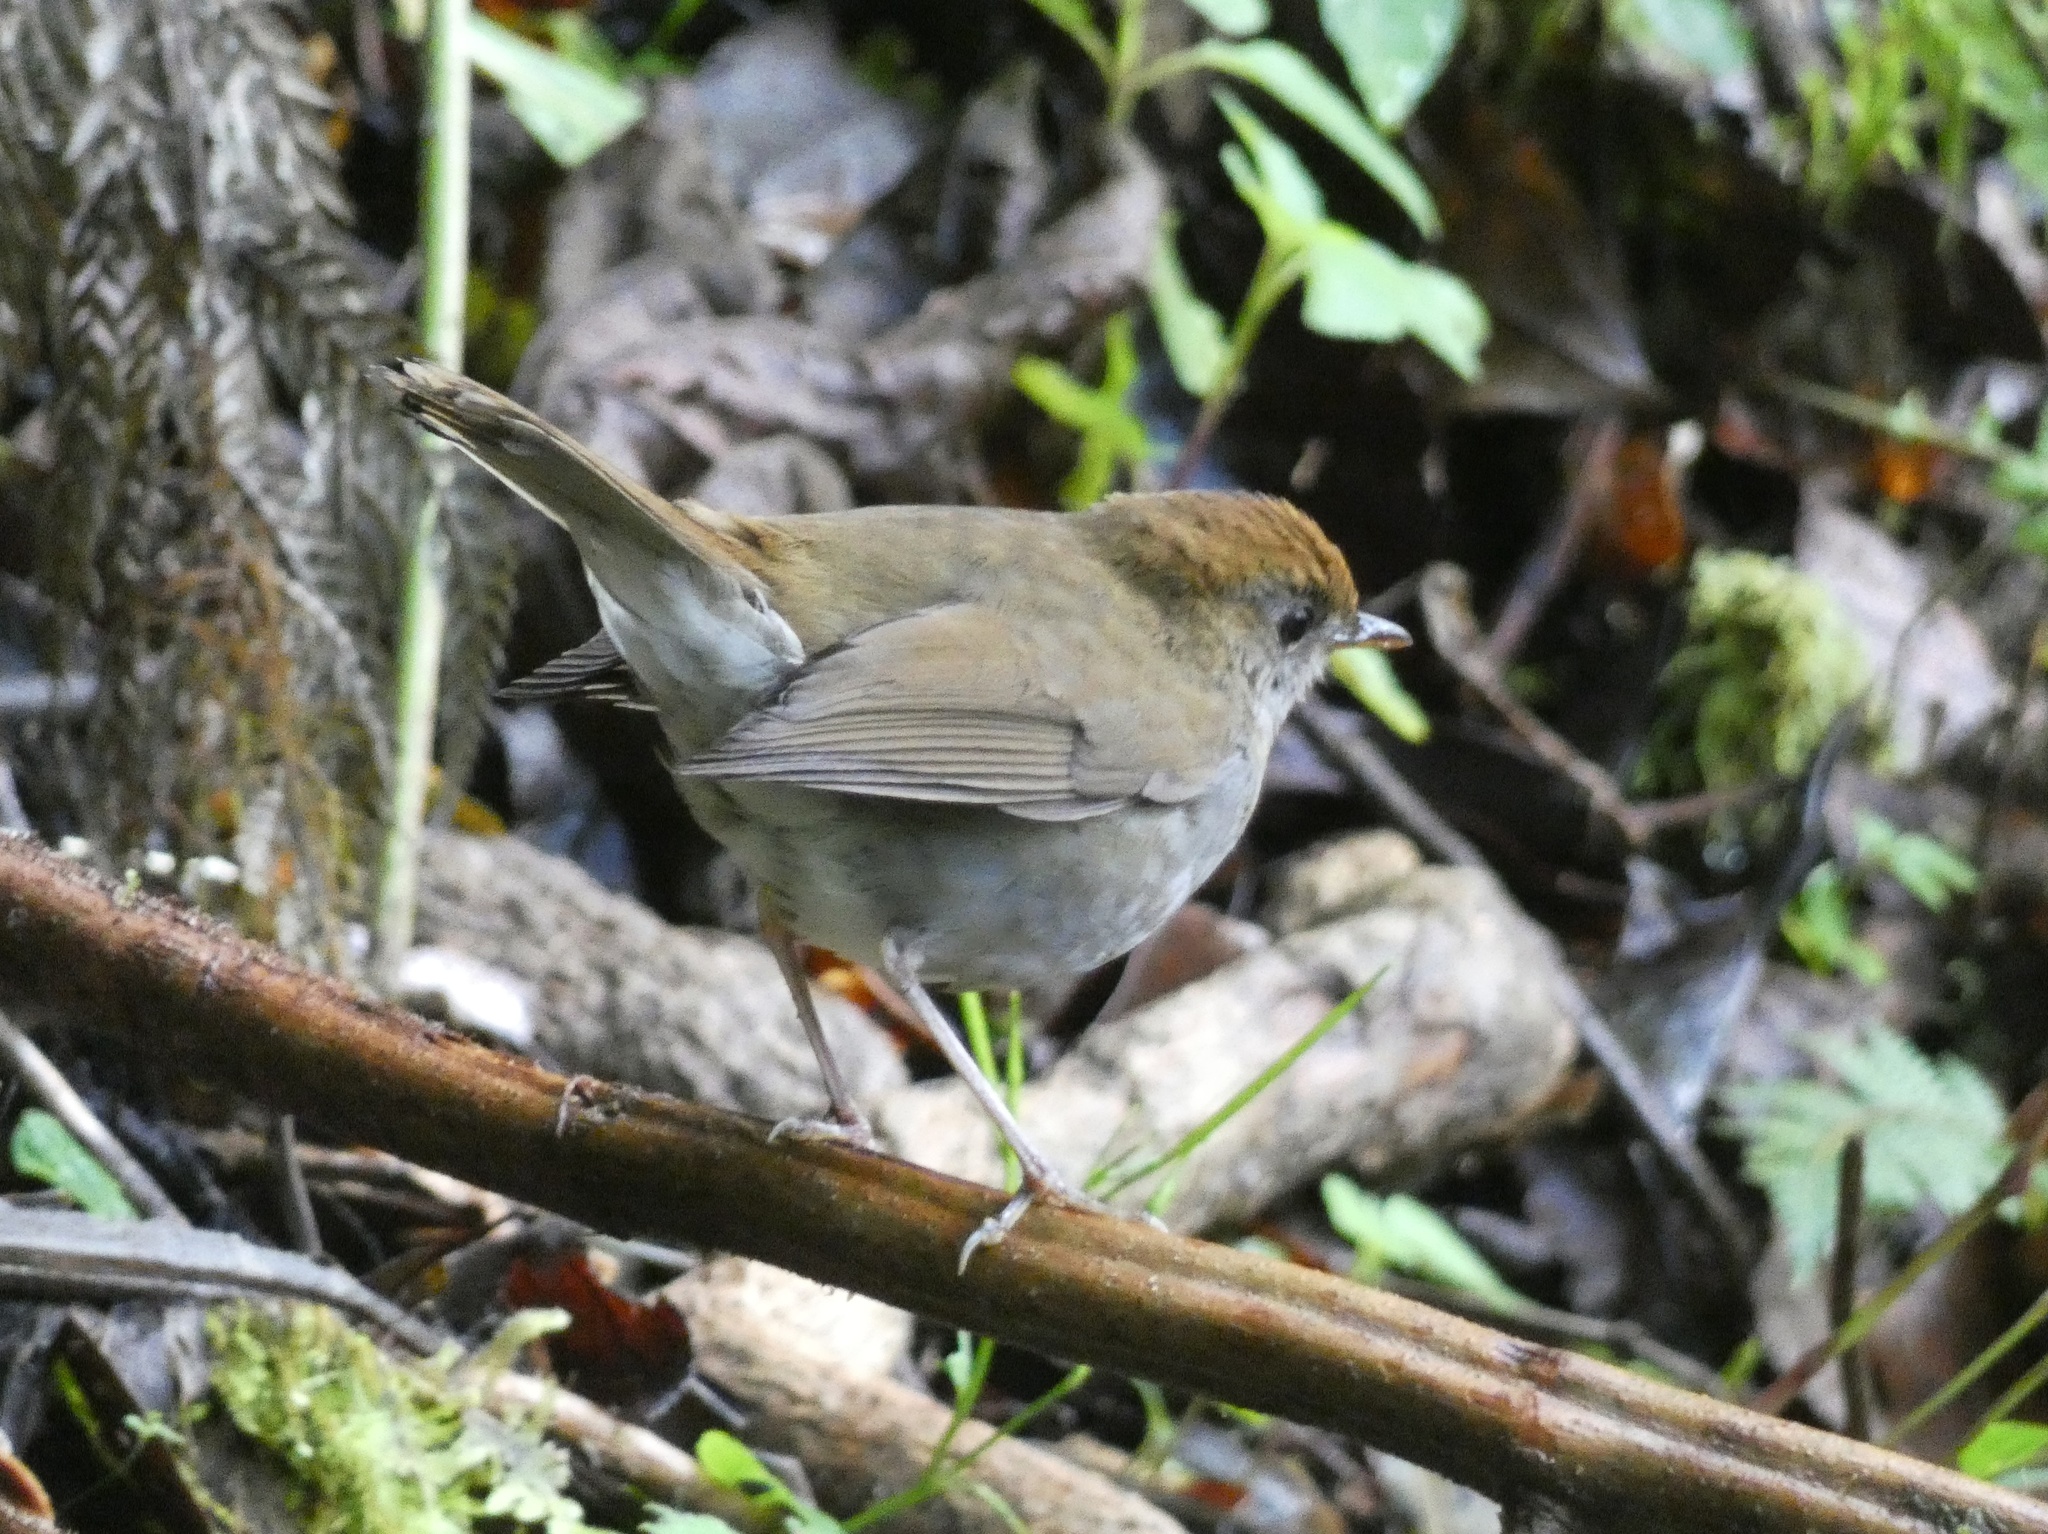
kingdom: Animalia
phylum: Chordata
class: Aves
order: Passeriformes
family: Turdidae
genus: Catharus
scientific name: Catharus frantzii
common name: Ruddy-capped nightingale-thrush
